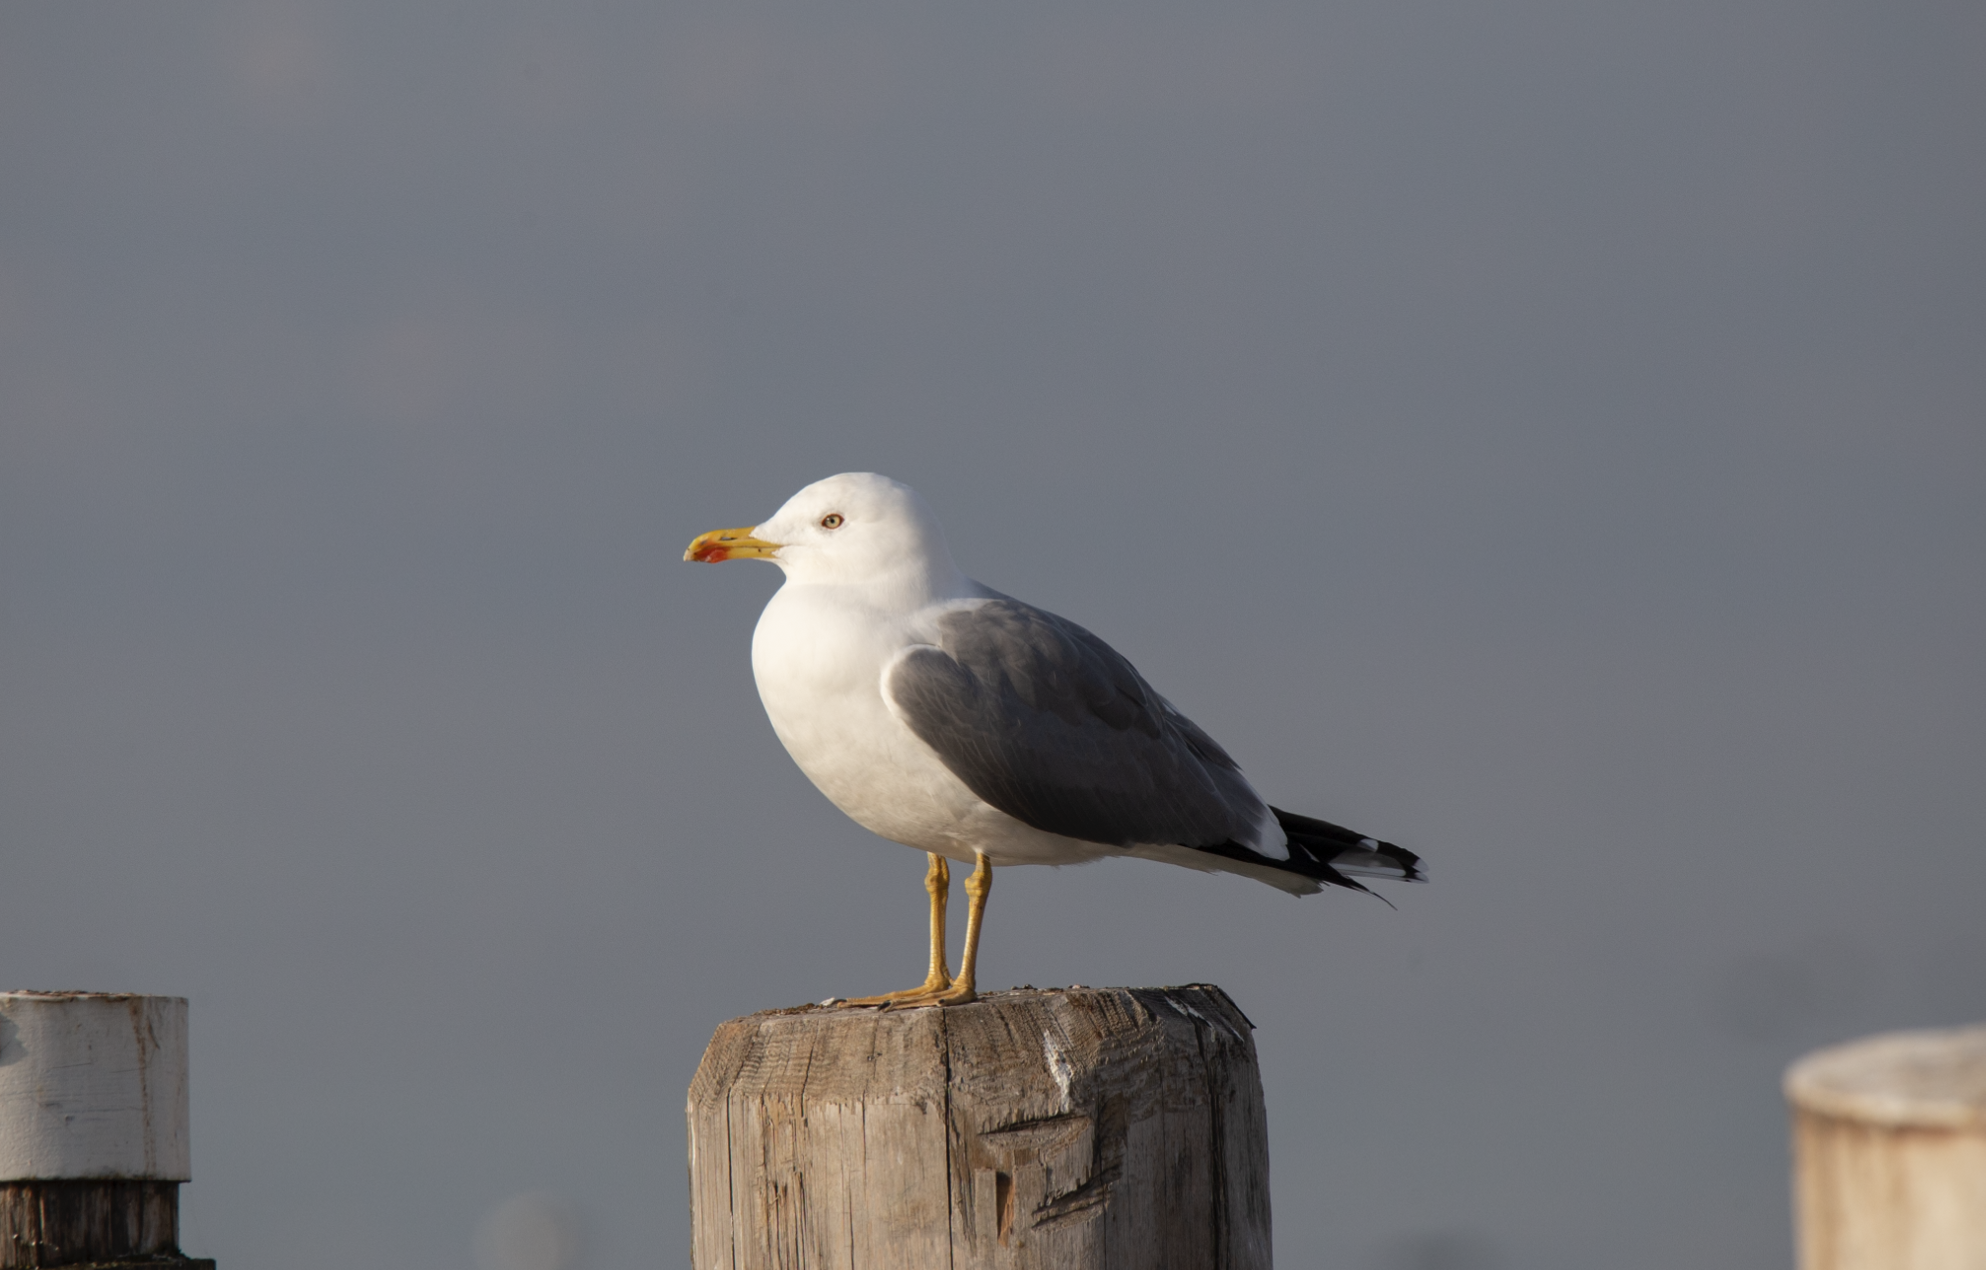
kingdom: Animalia
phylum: Chordata
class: Aves
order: Charadriiformes
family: Laridae
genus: Larus
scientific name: Larus michahellis
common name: Yellow-legged gull
